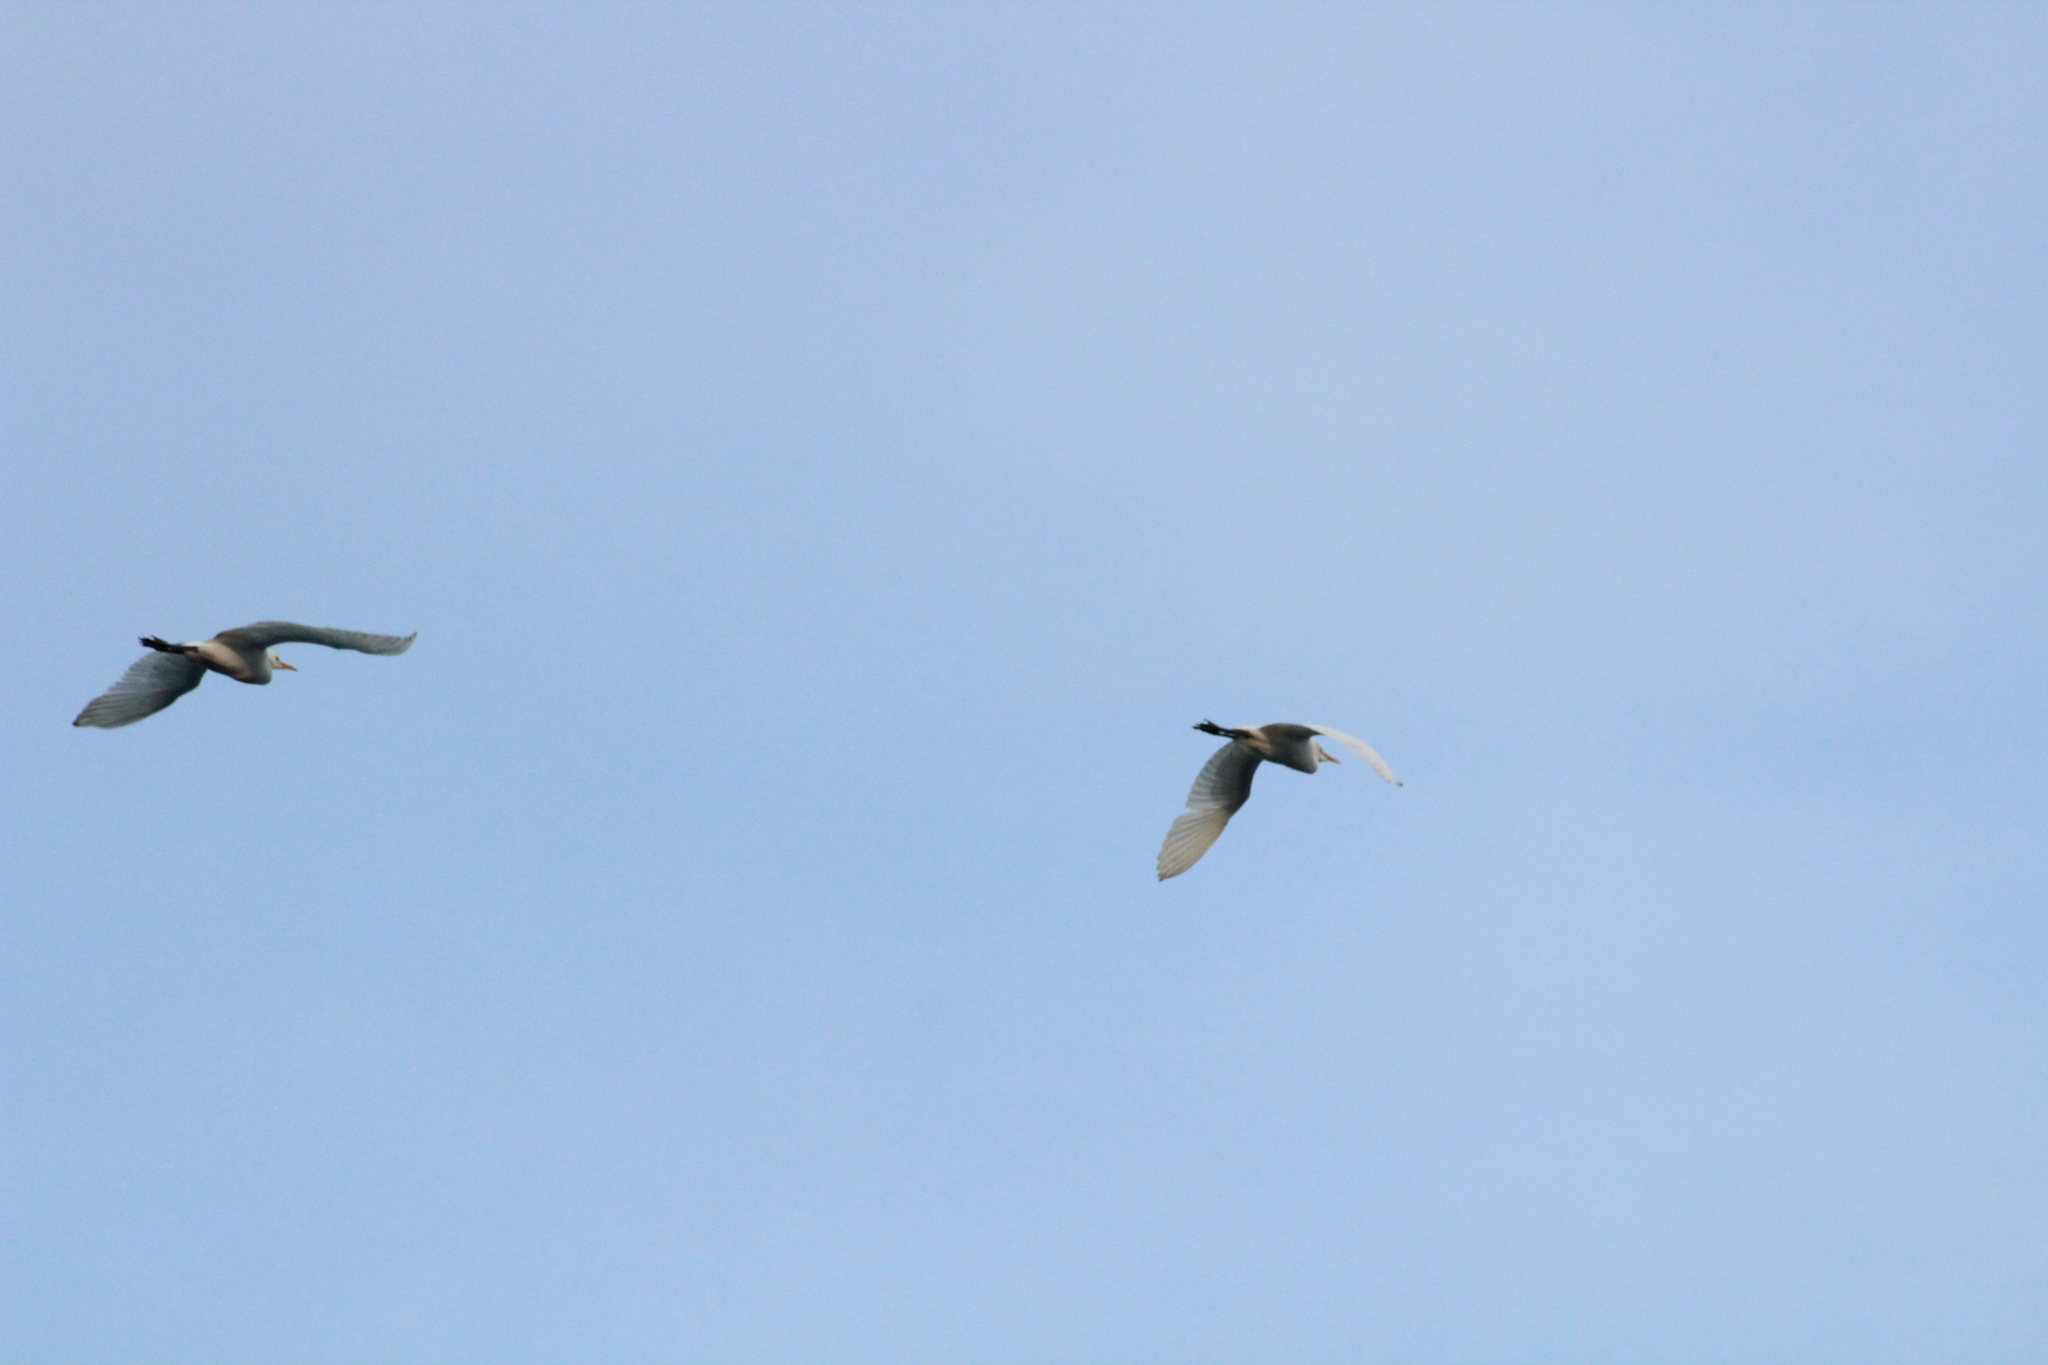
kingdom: Animalia
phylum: Chordata
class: Aves
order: Pelecaniformes
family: Ardeidae
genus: Bubulcus
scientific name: Bubulcus ibis
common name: Cattle egret
